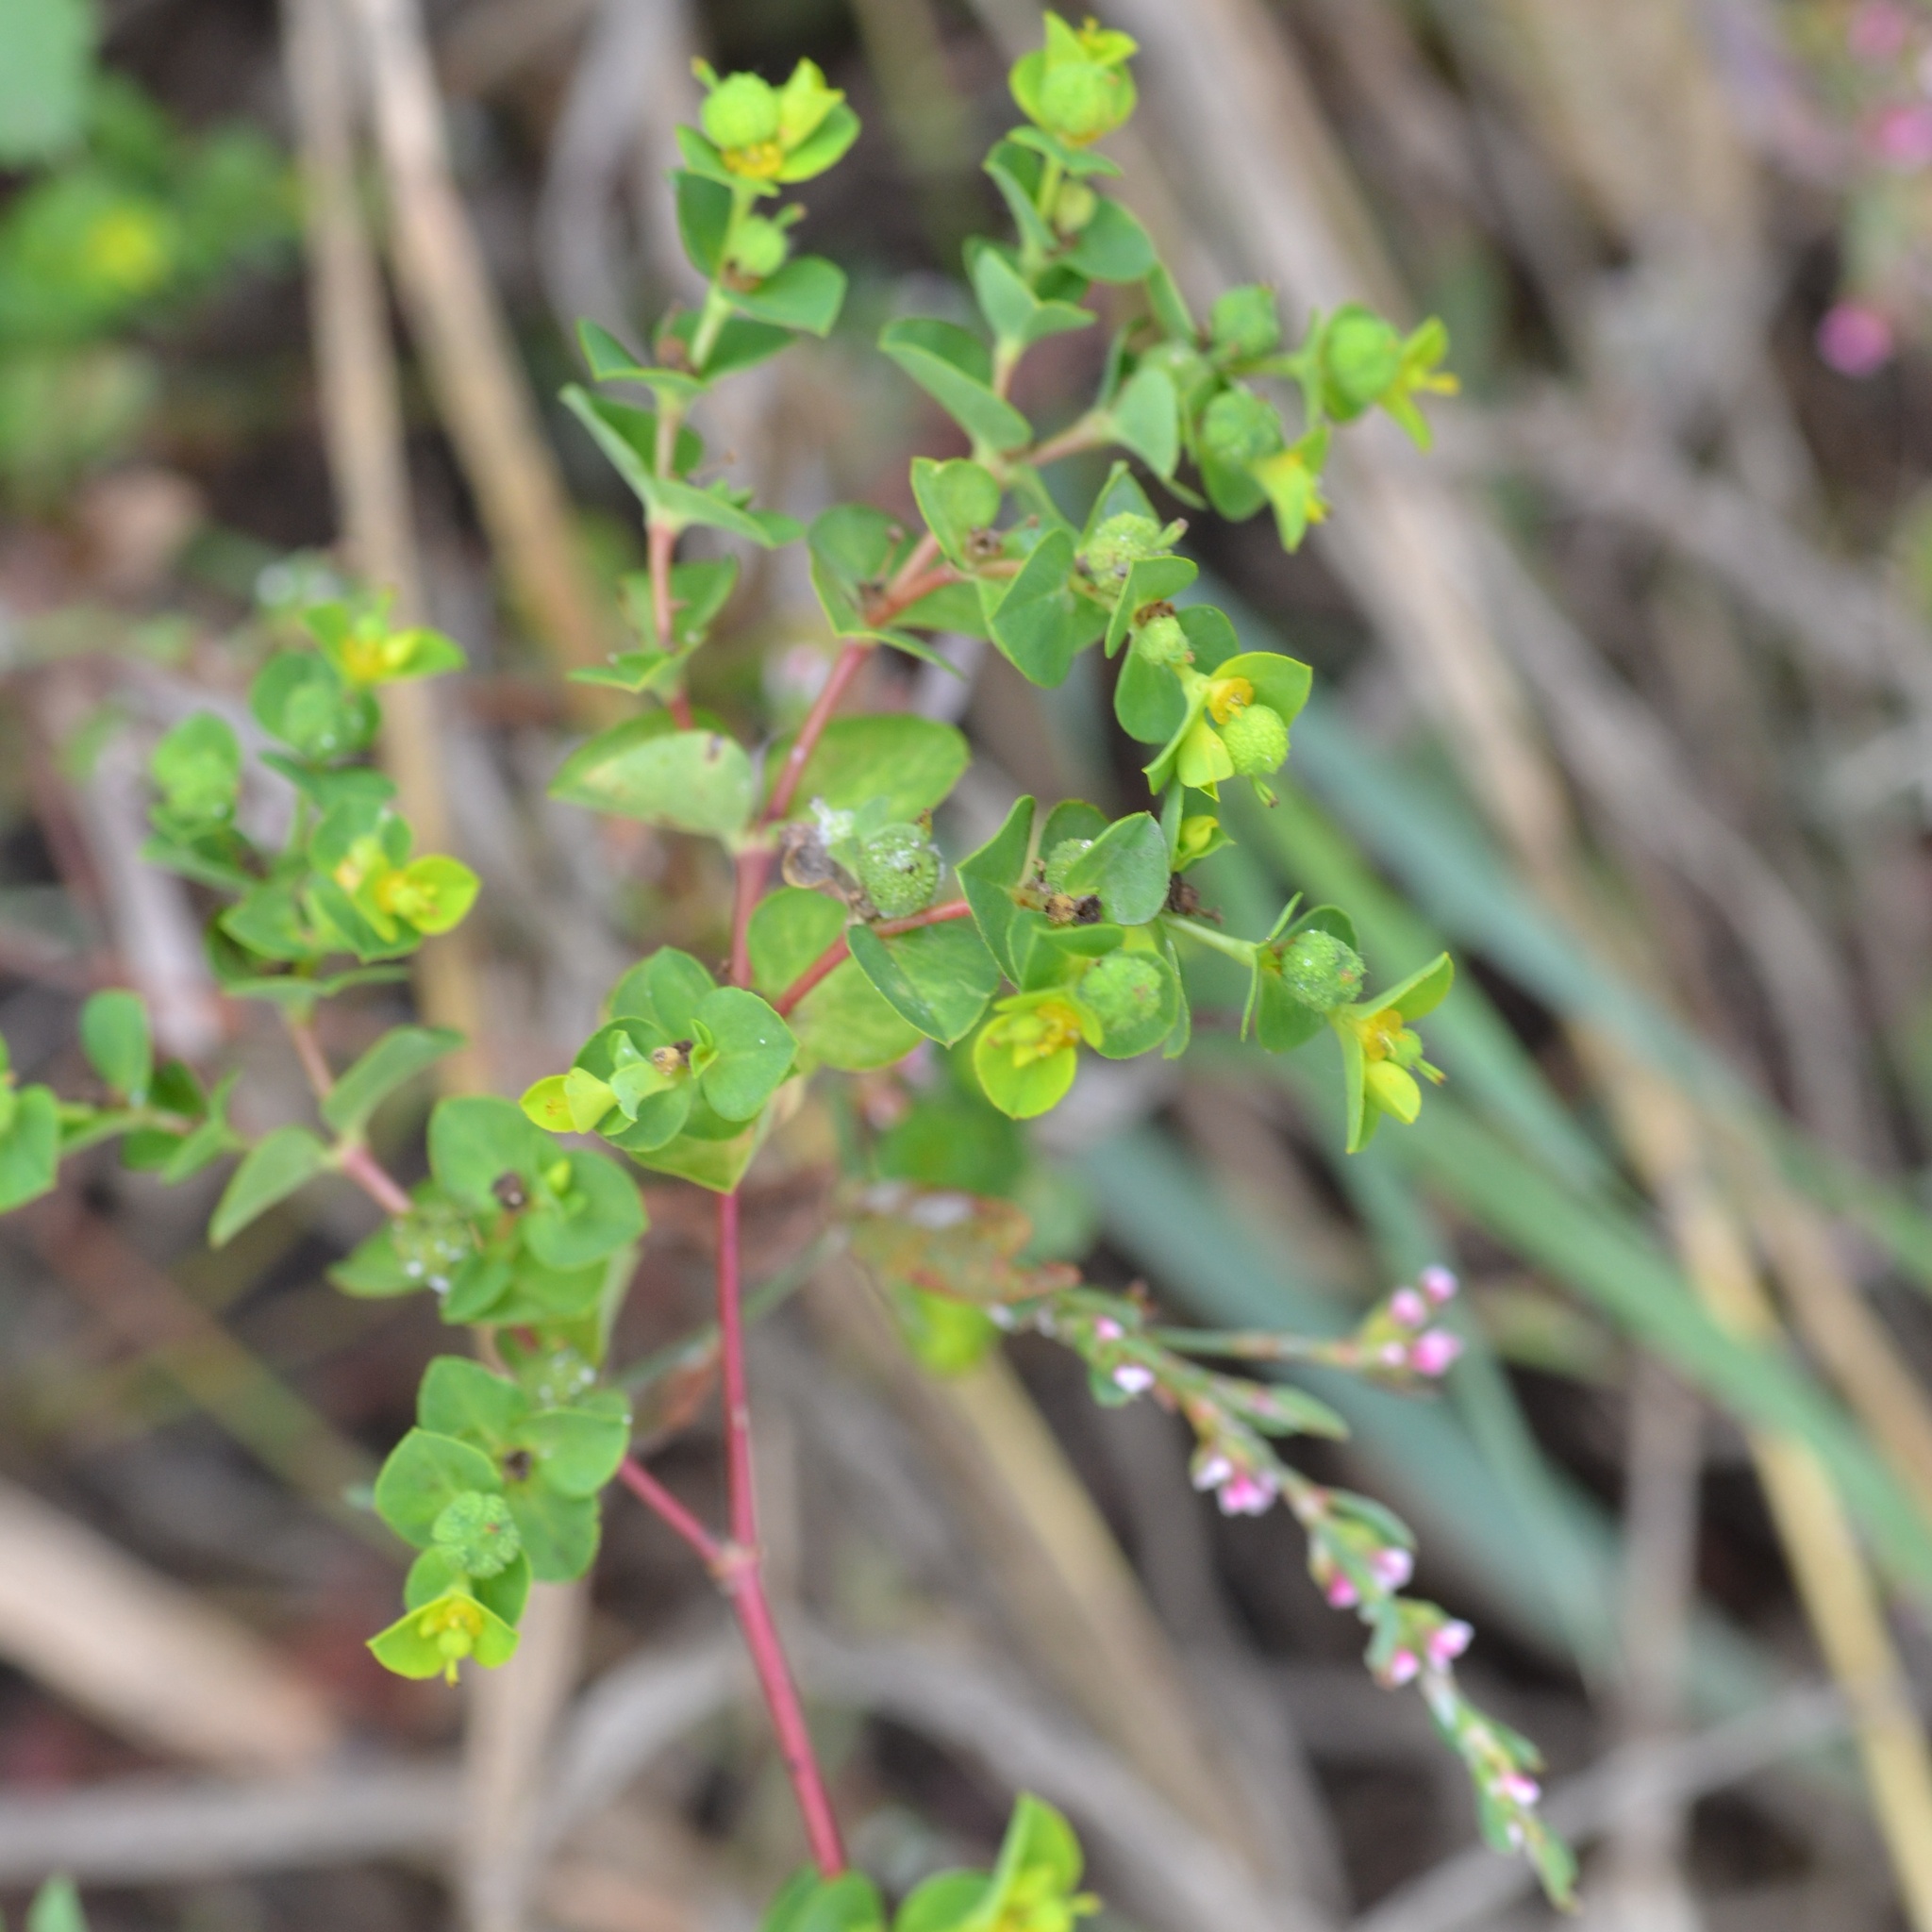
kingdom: Plantae
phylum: Tracheophyta
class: Magnoliopsida
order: Malpighiales
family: Euphorbiaceae
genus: Euphorbia
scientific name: Euphorbia platyphyllos
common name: Broad-leaved spurge
